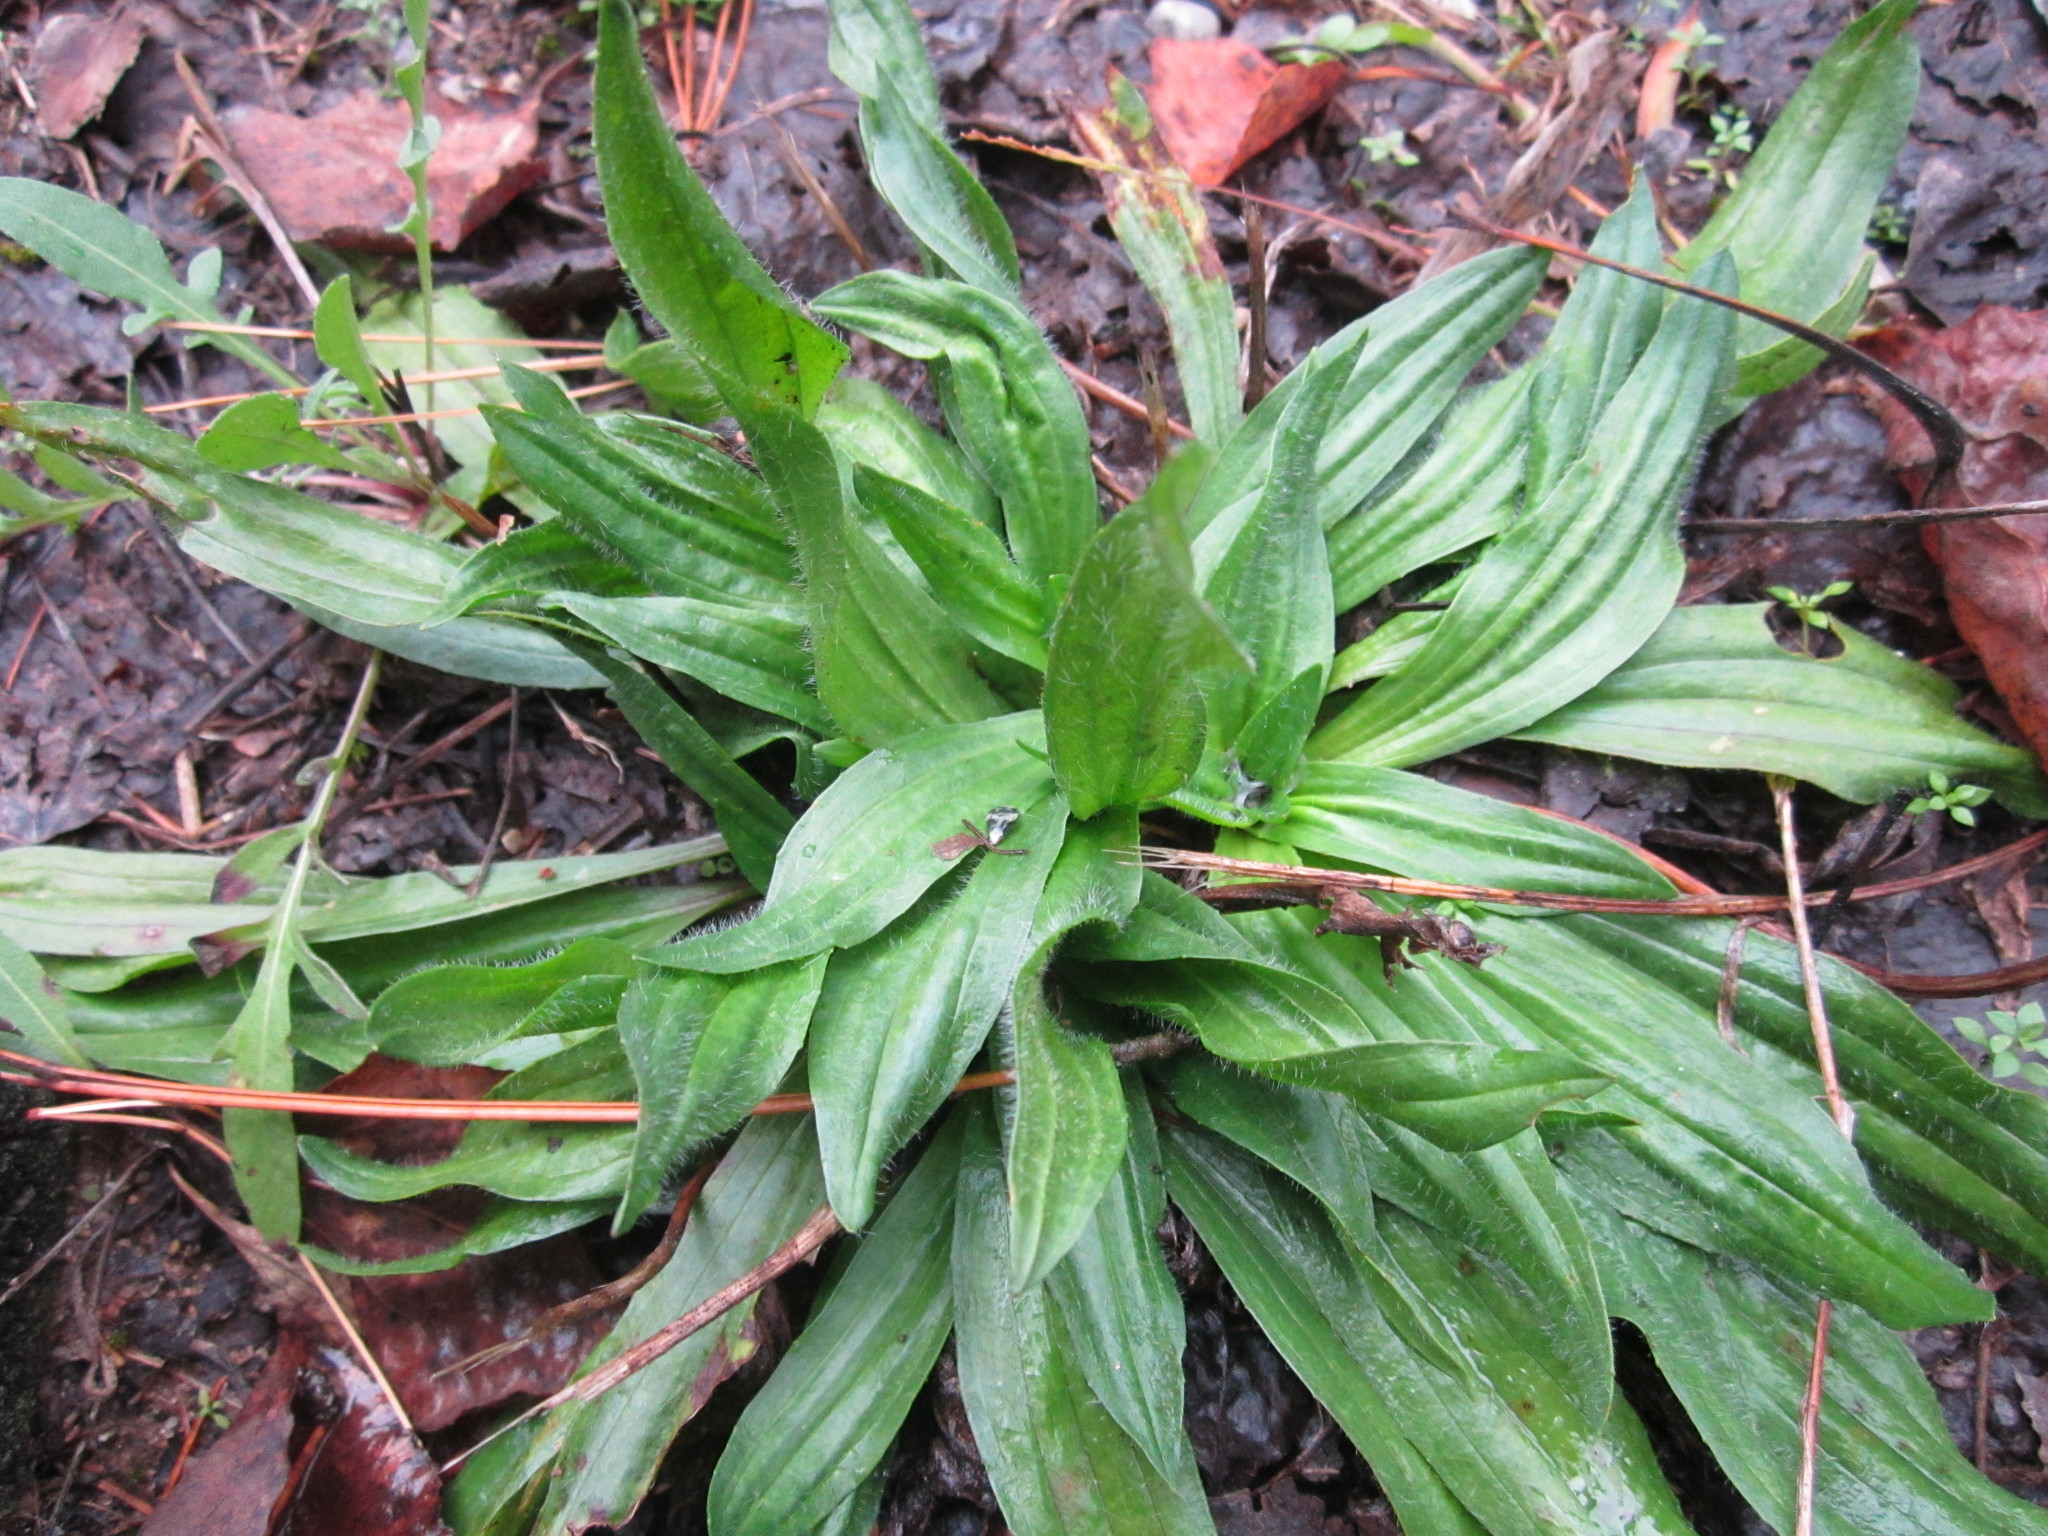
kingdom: Plantae
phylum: Tracheophyta
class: Magnoliopsida
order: Lamiales
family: Plantaginaceae
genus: Plantago
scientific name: Plantago lanceolata
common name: Ribwort plantain
